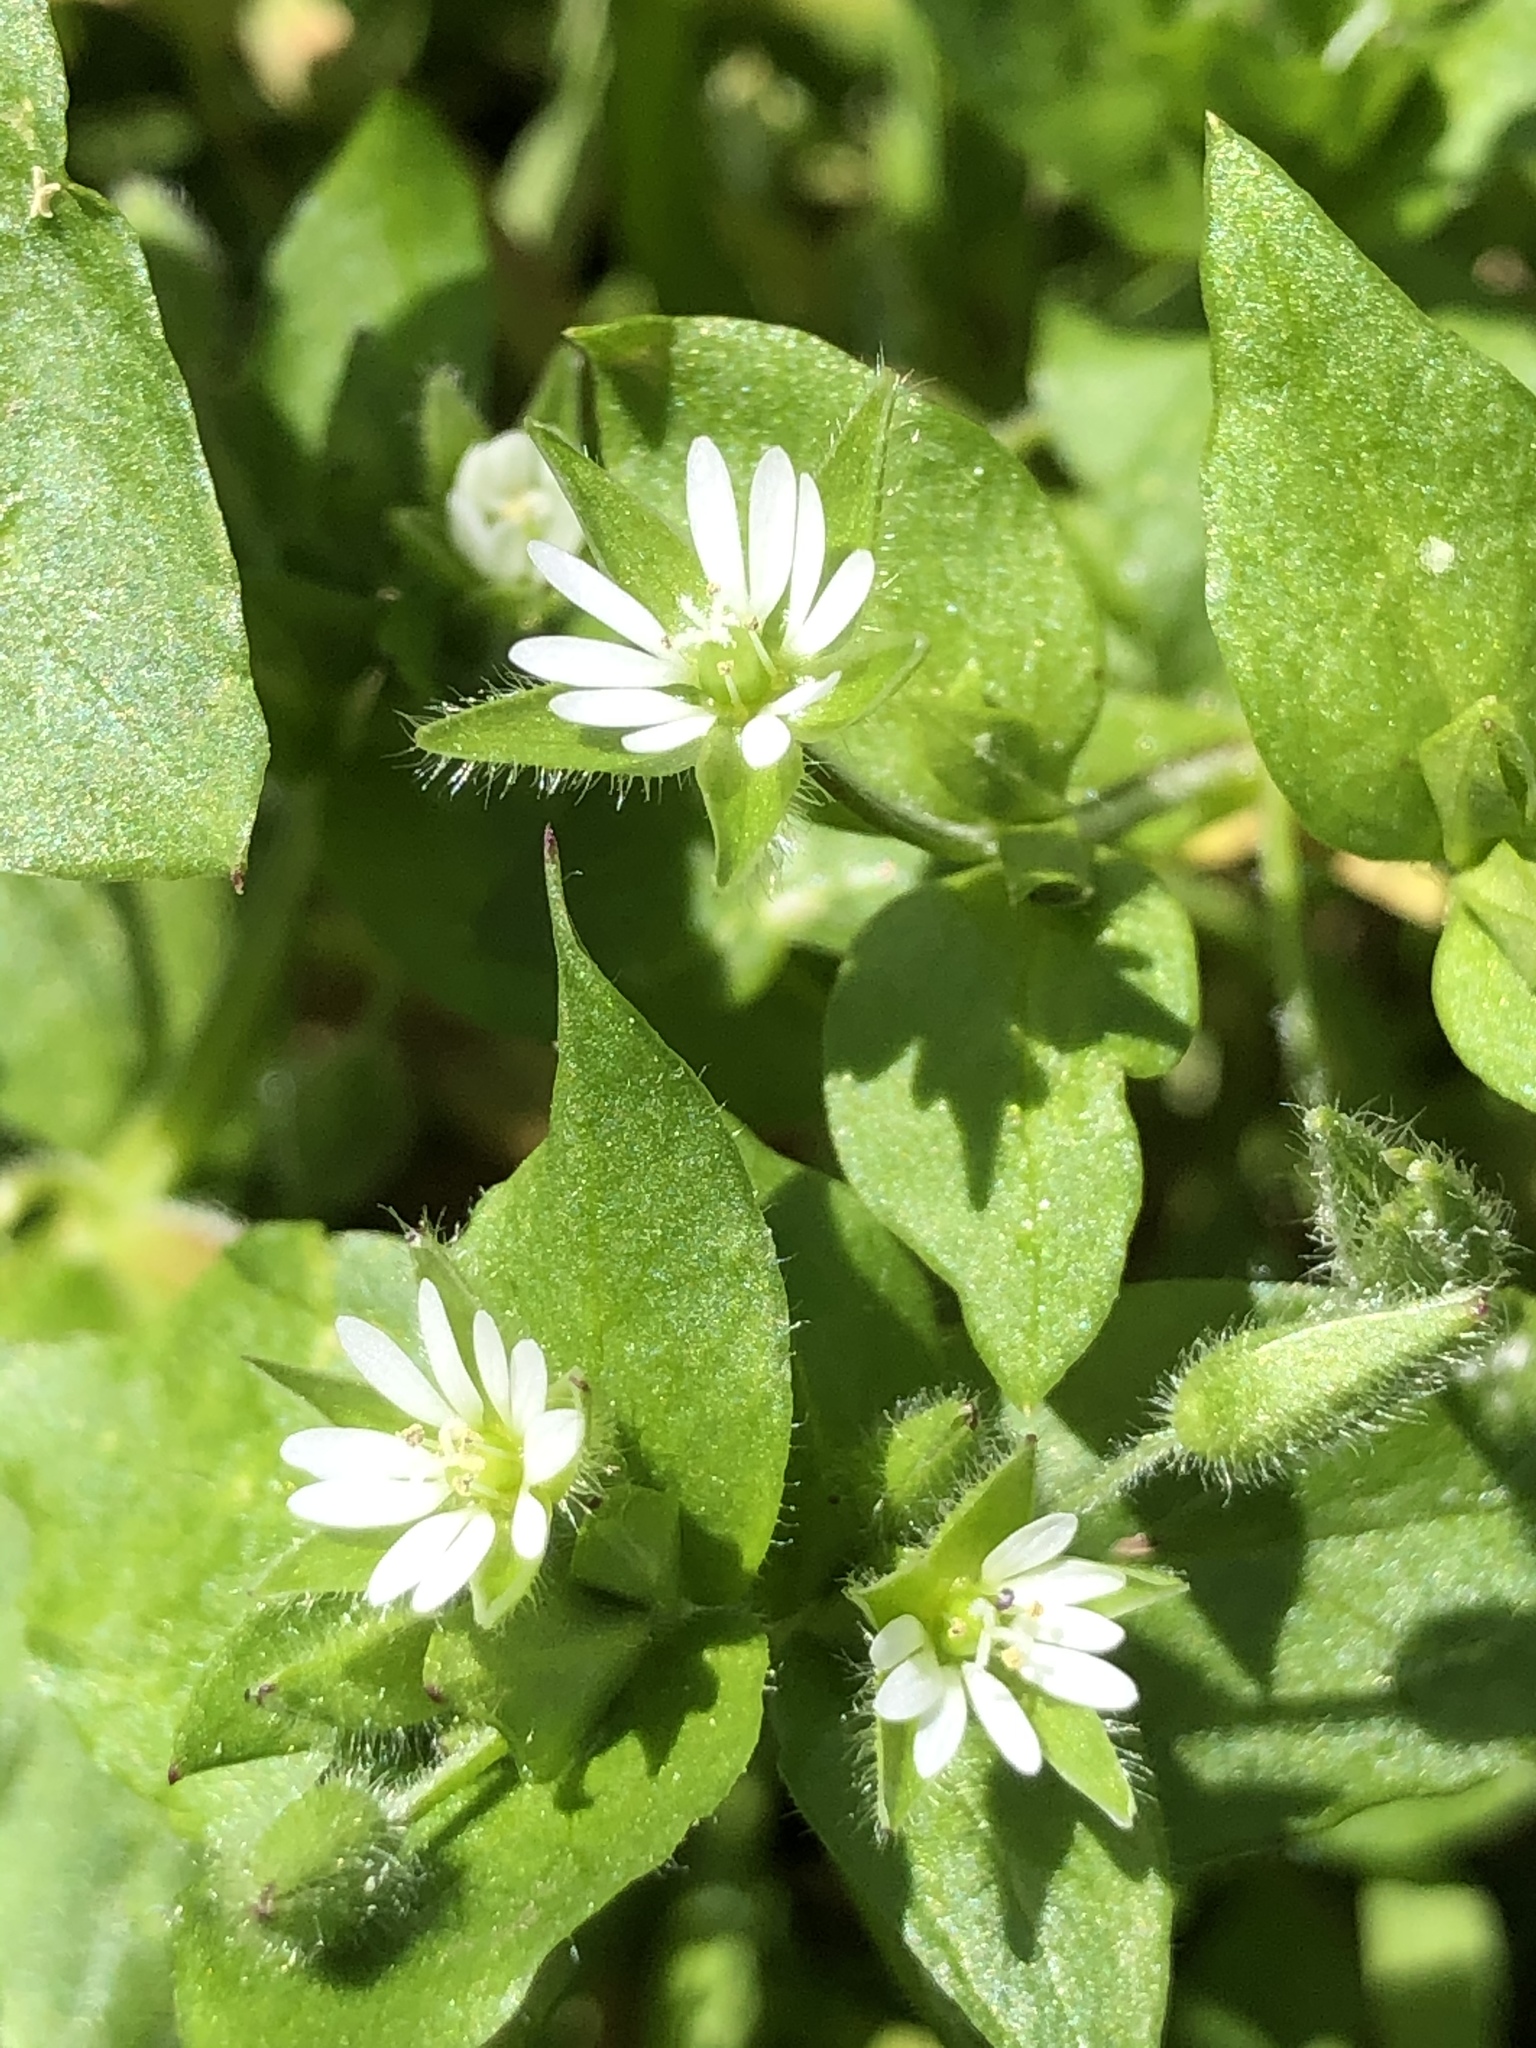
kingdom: Plantae
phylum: Tracheophyta
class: Magnoliopsida
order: Caryophyllales
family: Caryophyllaceae
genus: Stellaria
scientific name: Stellaria media
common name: Common chickweed
